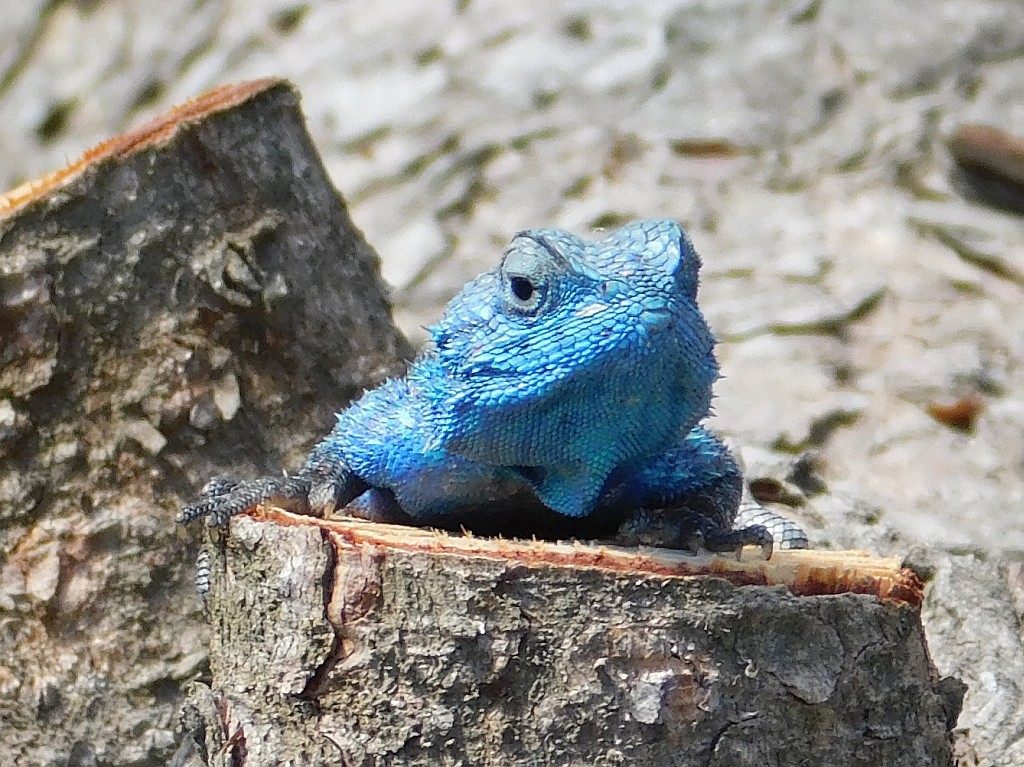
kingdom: Animalia
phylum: Chordata
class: Squamata
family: Agamidae
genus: Agama
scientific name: Agama atra
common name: Southern african rock agama
